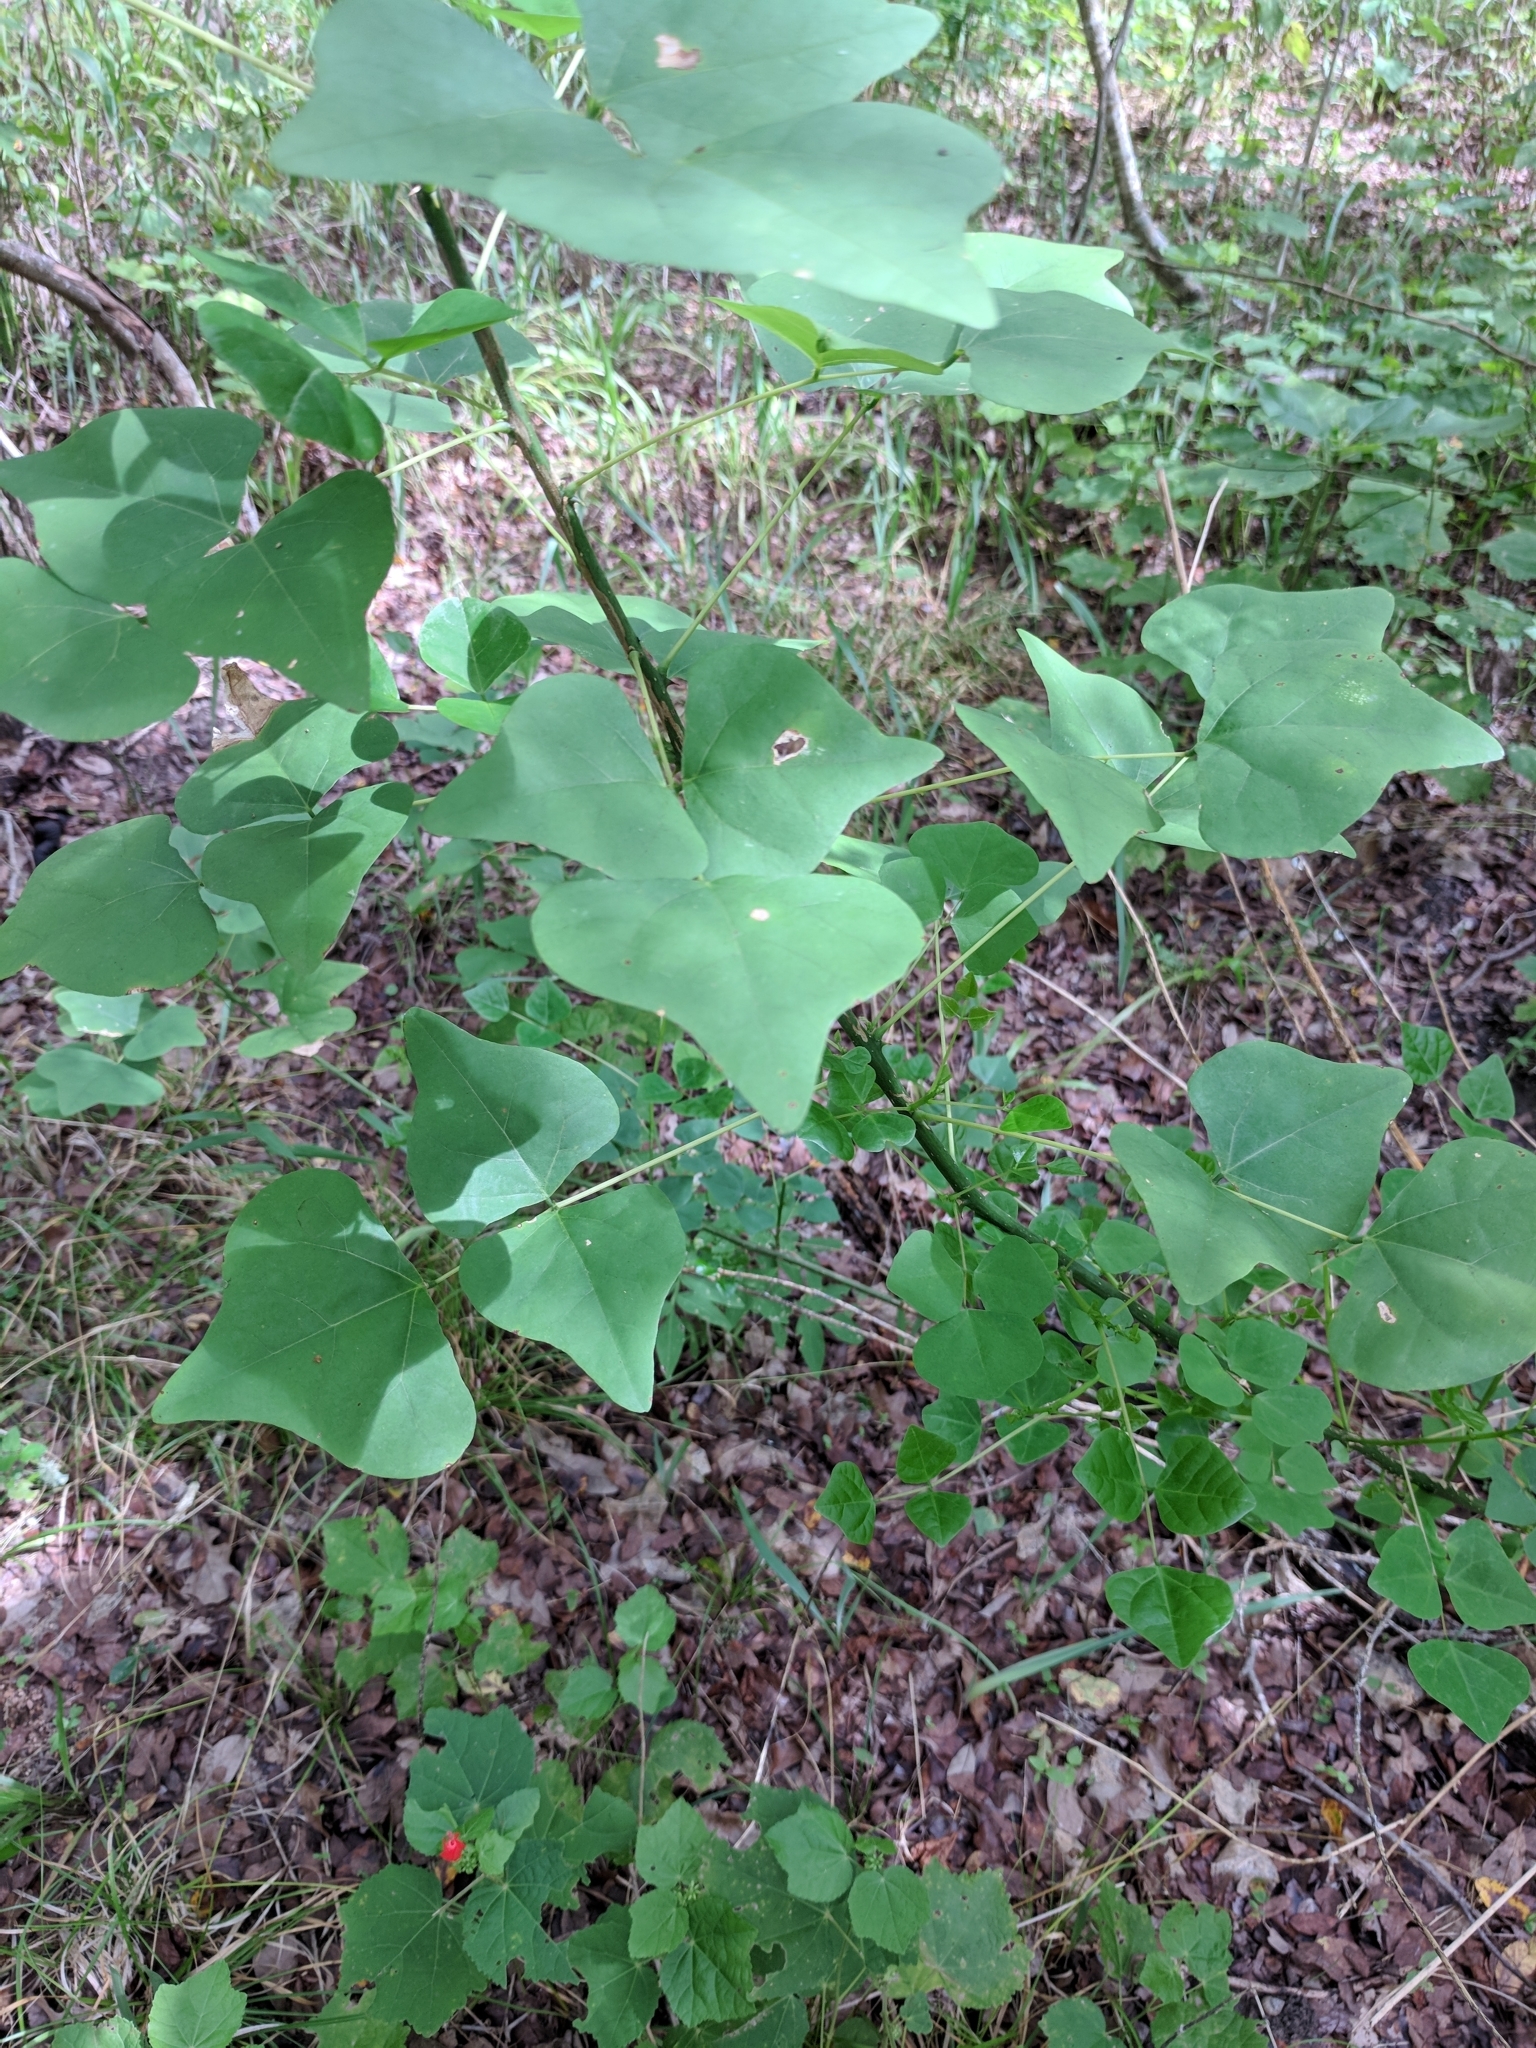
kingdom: Plantae
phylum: Tracheophyta
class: Magnoliopsida
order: Fabales
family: Fabaceae
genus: Erythrina
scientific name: Erythrina herbacea
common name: Coral-bean
